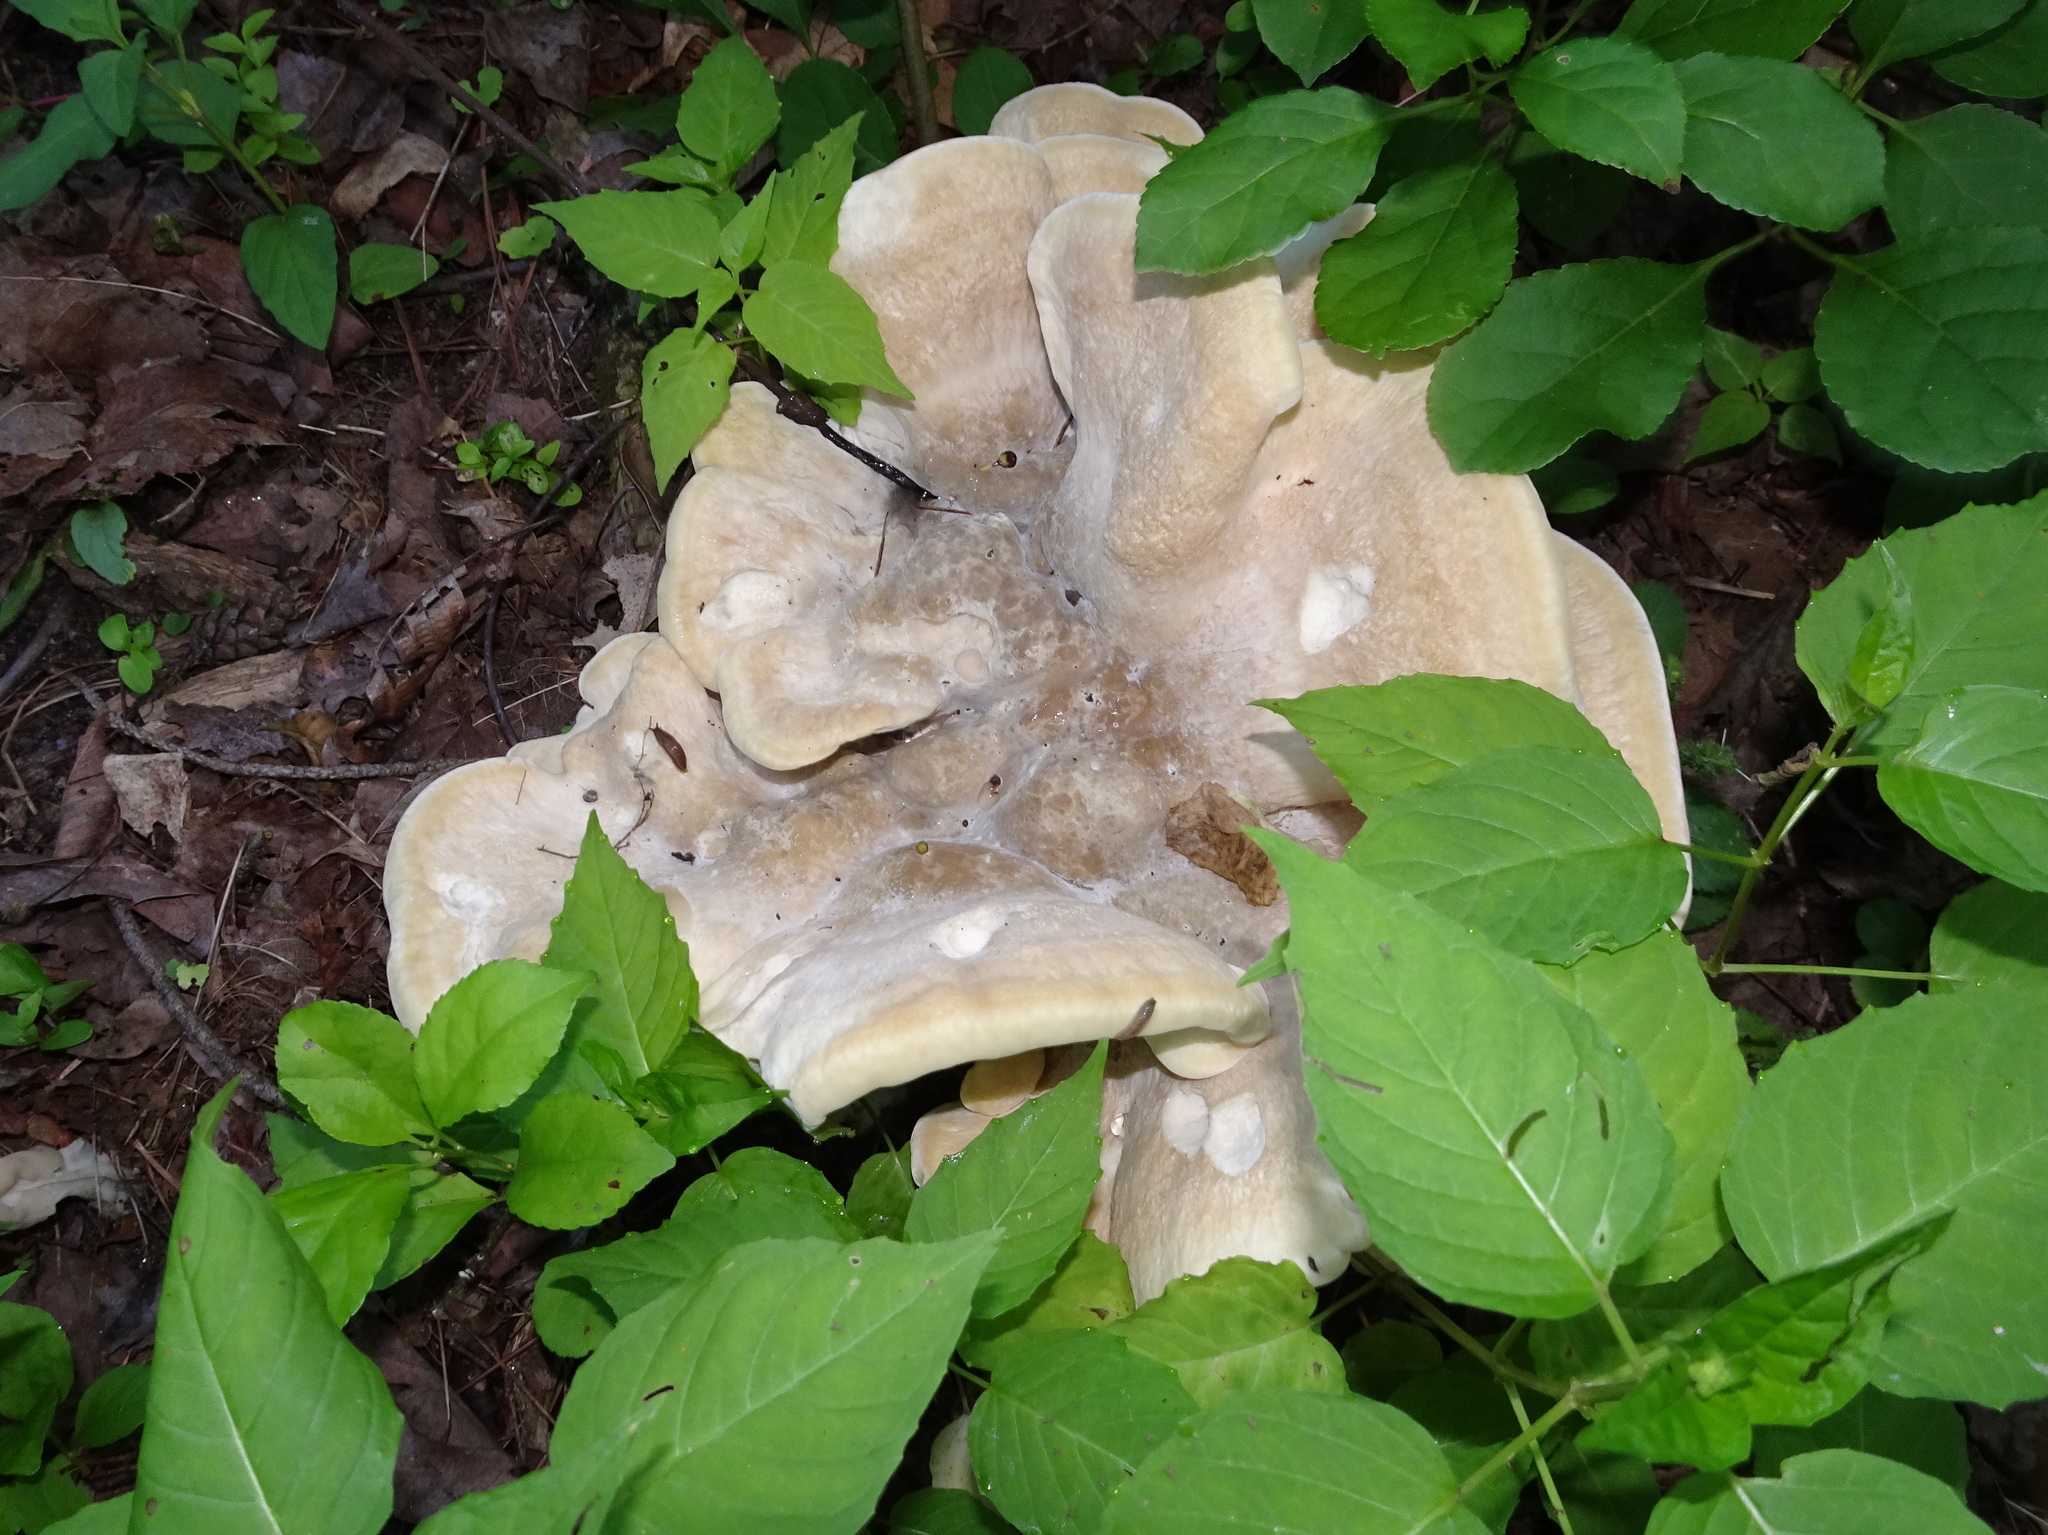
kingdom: Fungi
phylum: Basidiomycota
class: Agaricomycetes
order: Russulales
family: Bondarzewiaceae
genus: Bondarzewia
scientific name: Bondarzewia berkeleyi
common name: Berkeley's polypore
